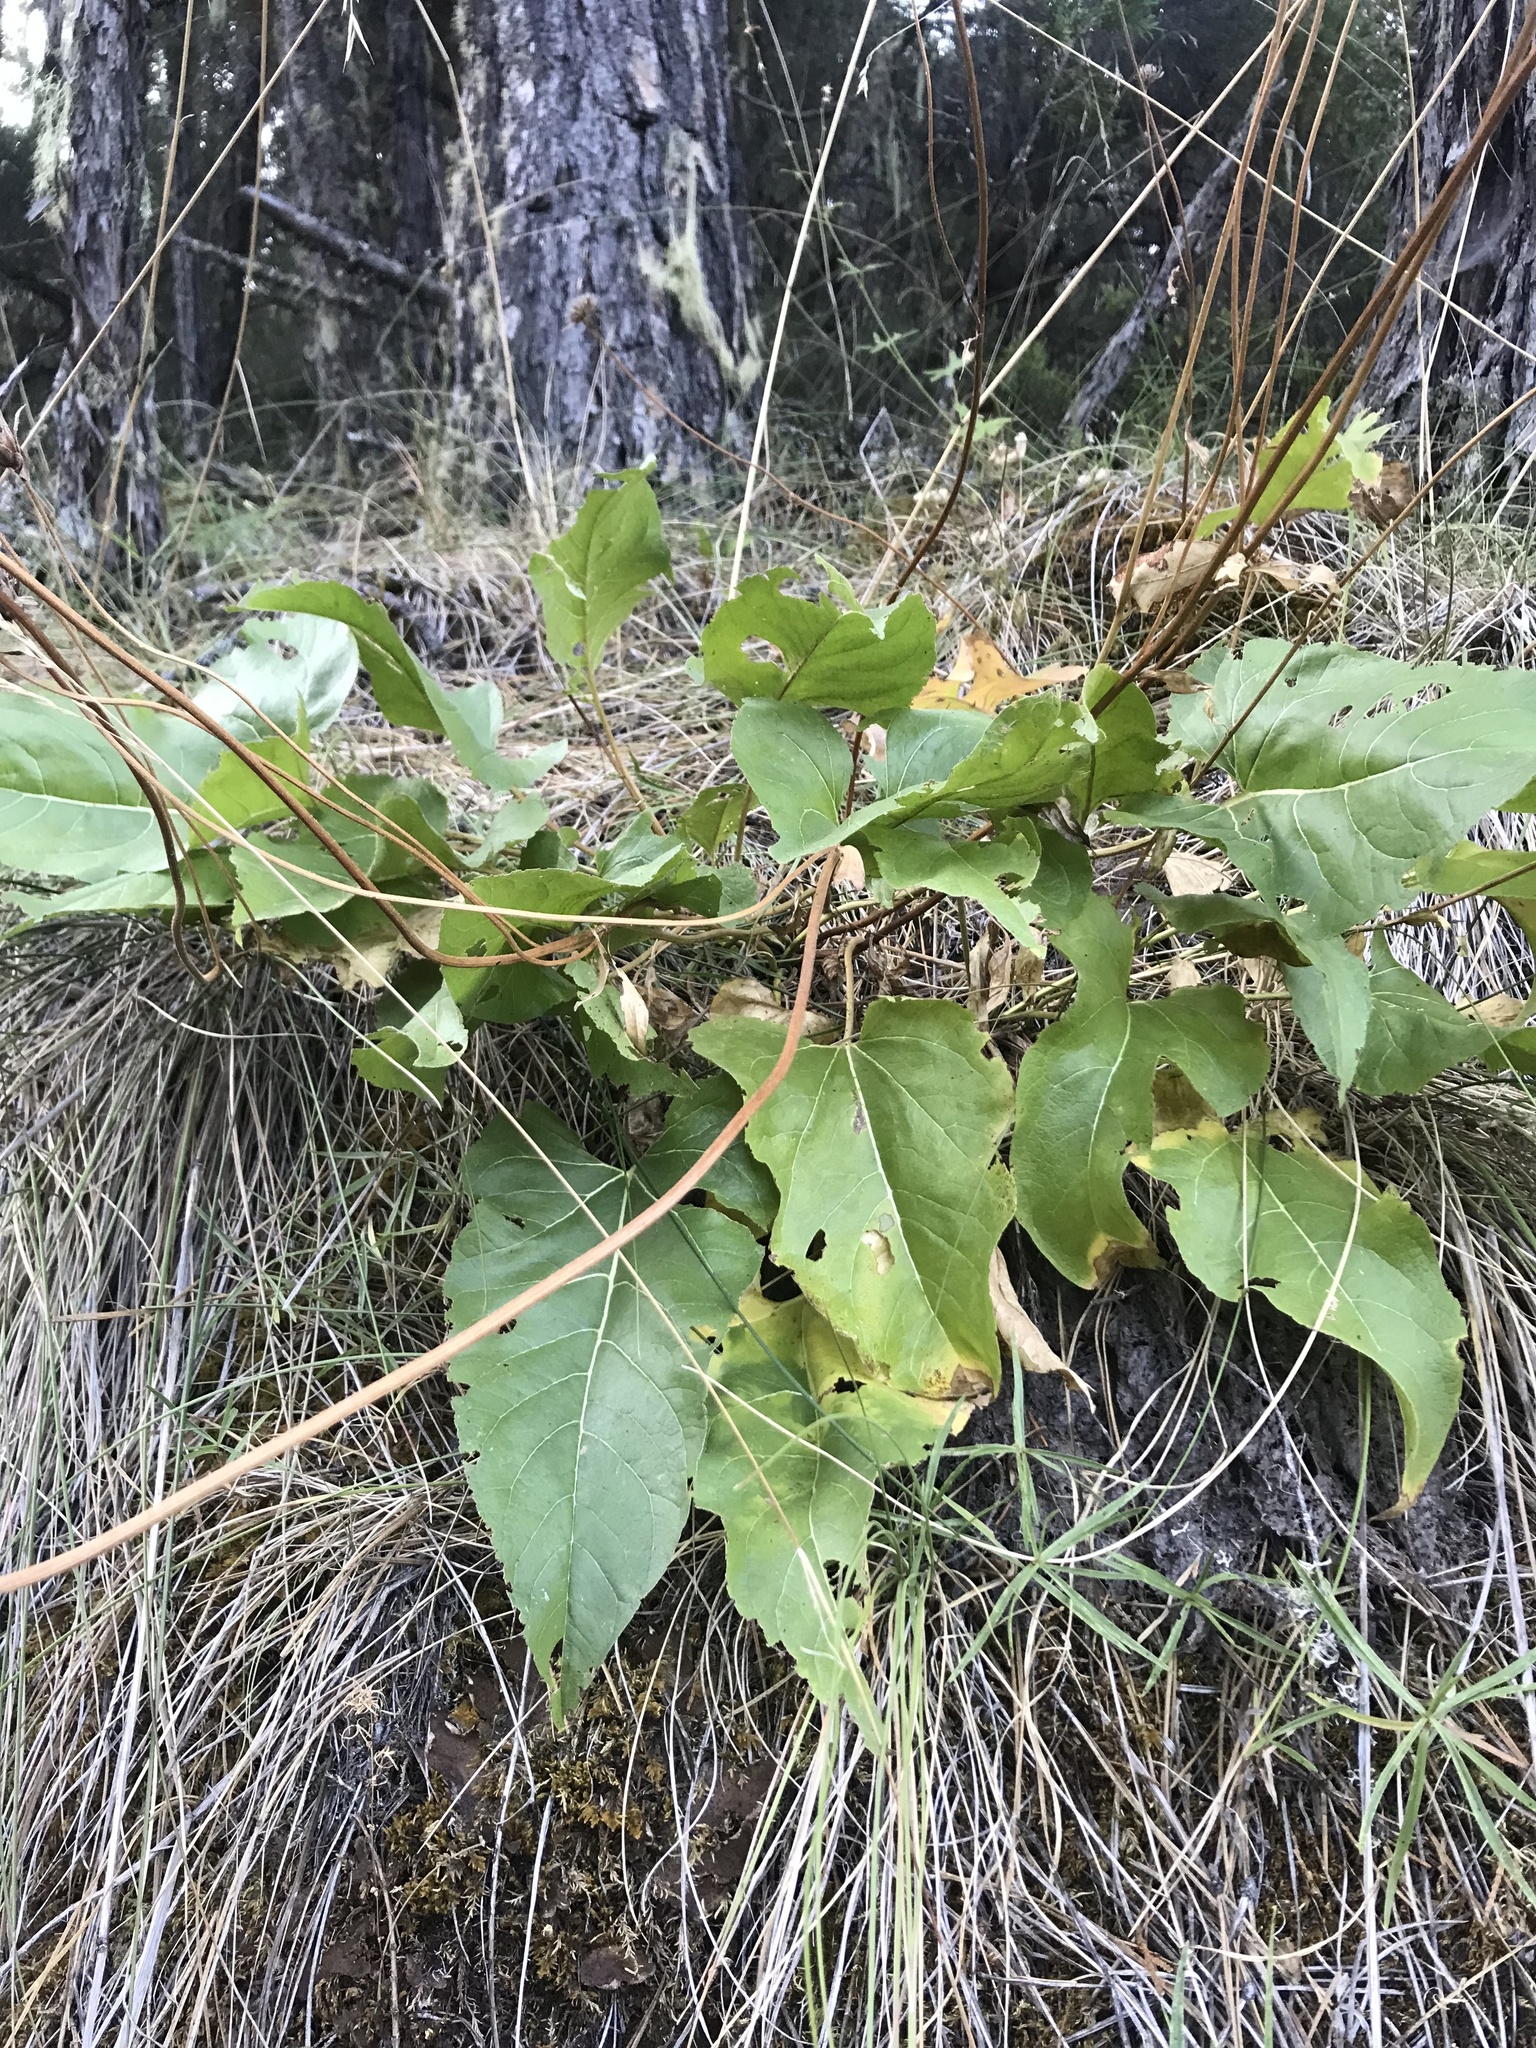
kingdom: Plantae
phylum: Tracheophyta
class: Magnoliopsida
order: Asterales
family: Asteraceae
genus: Balsamorhiza
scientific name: Balsamorhiza deltoidea
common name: Deltoid balsamroot
